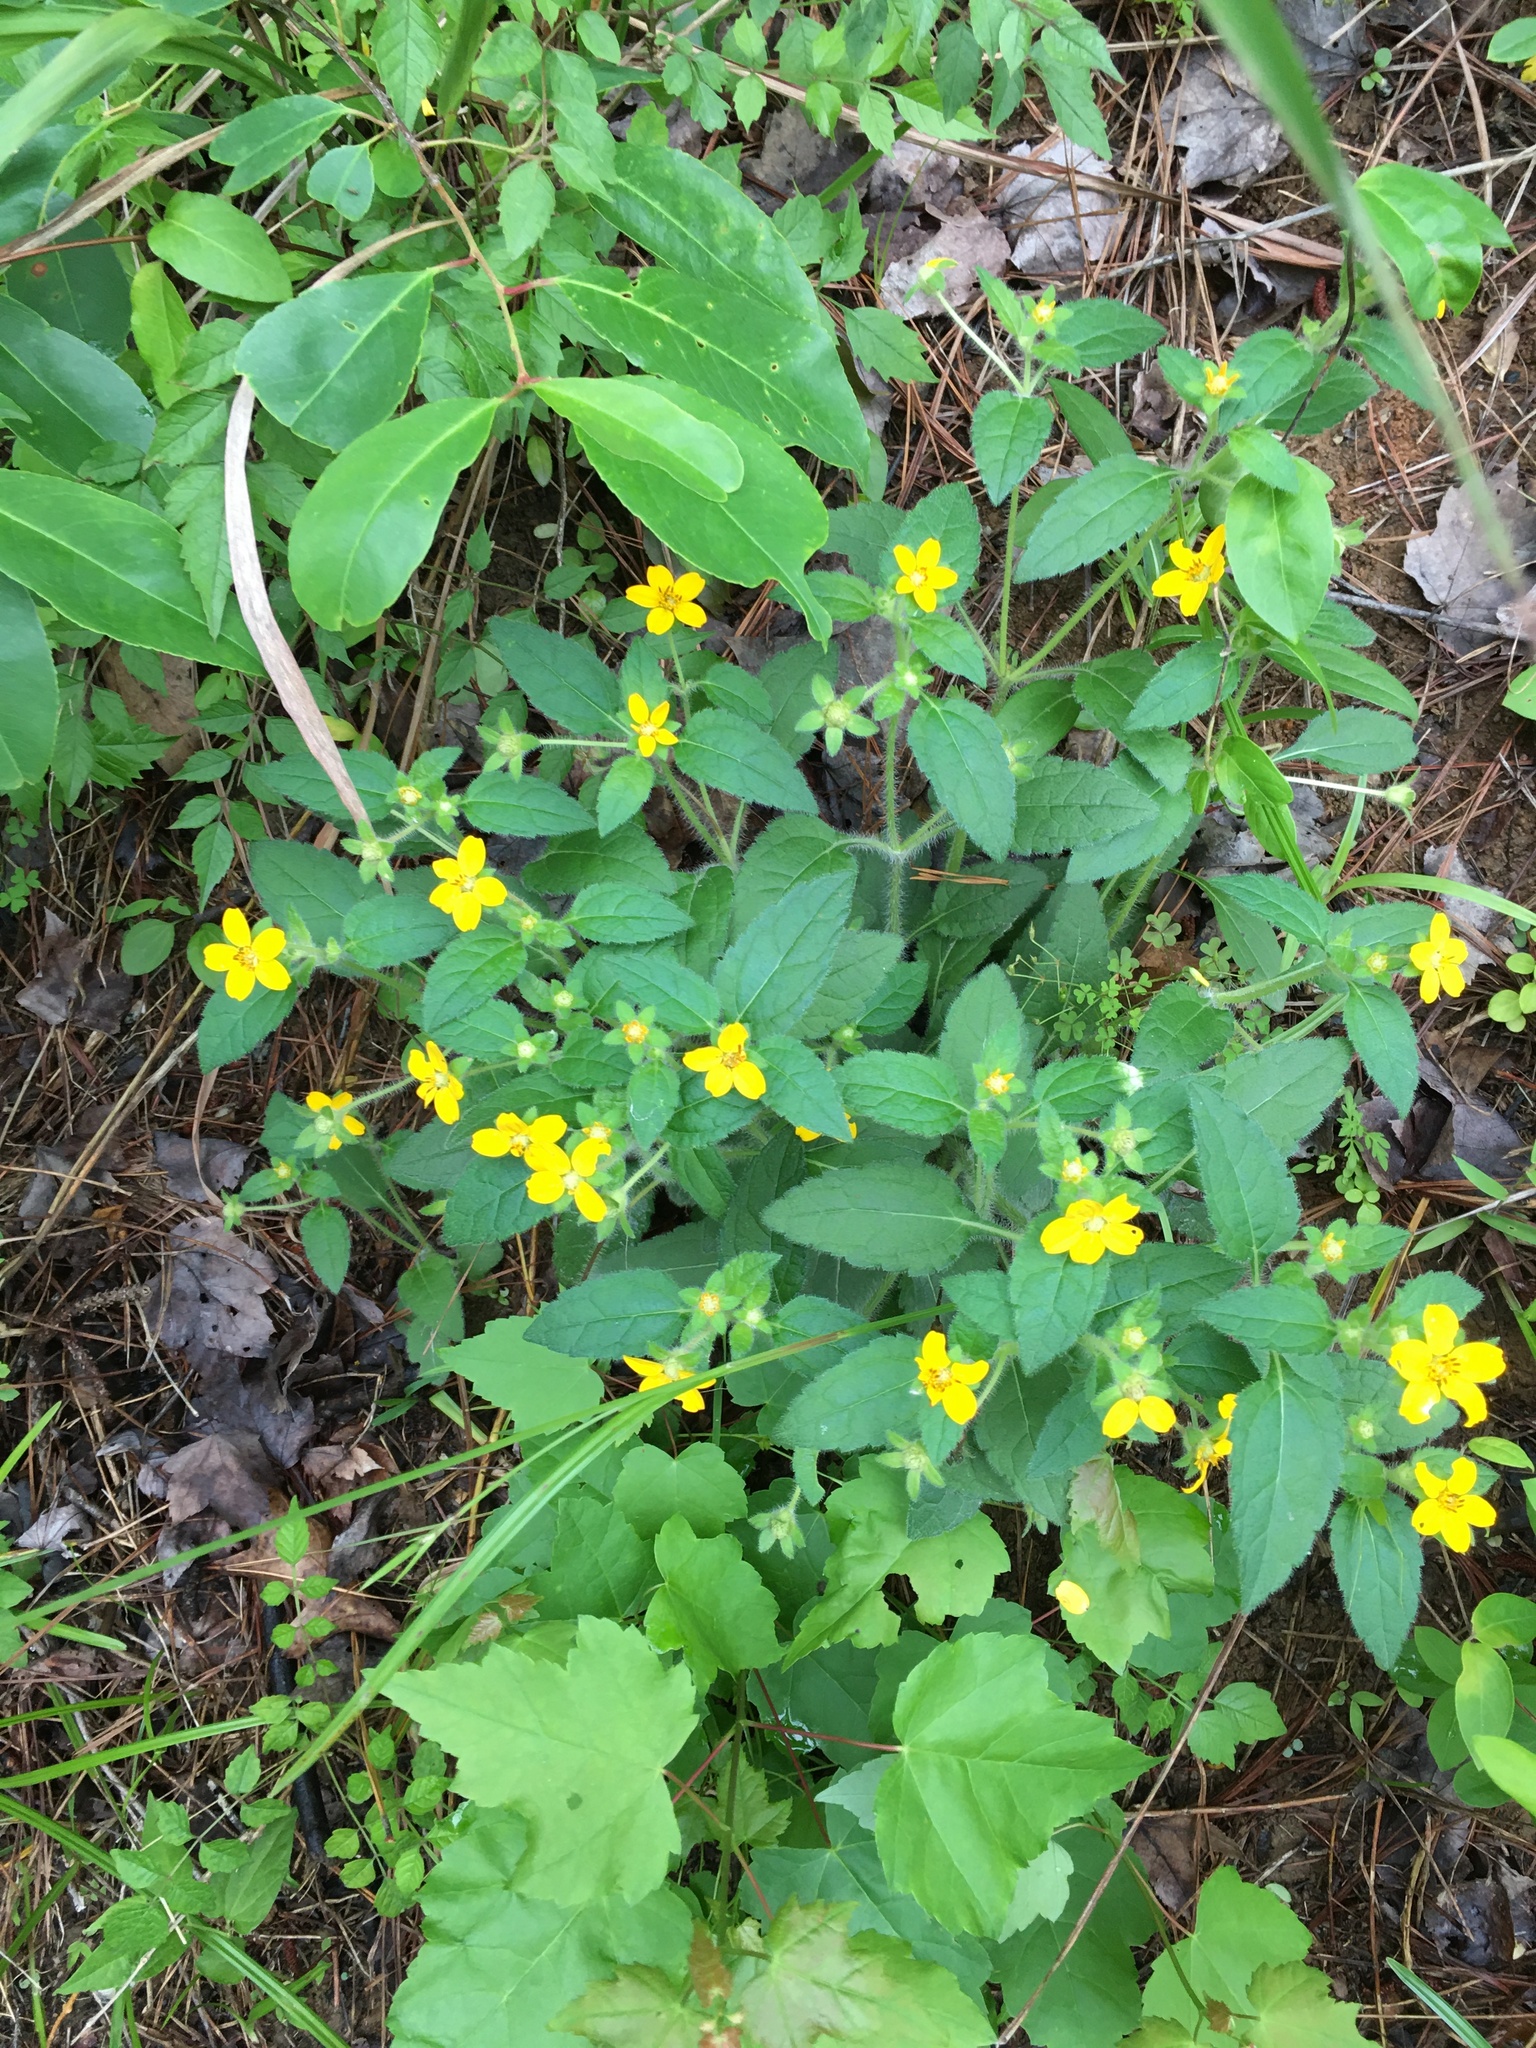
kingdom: Plantae
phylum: Tracheophyta
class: Magnoliopsida
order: Asterales
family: Asteraceae
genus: Chrysogonum
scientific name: Chrysogonum virginianum
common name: Golden-knee
